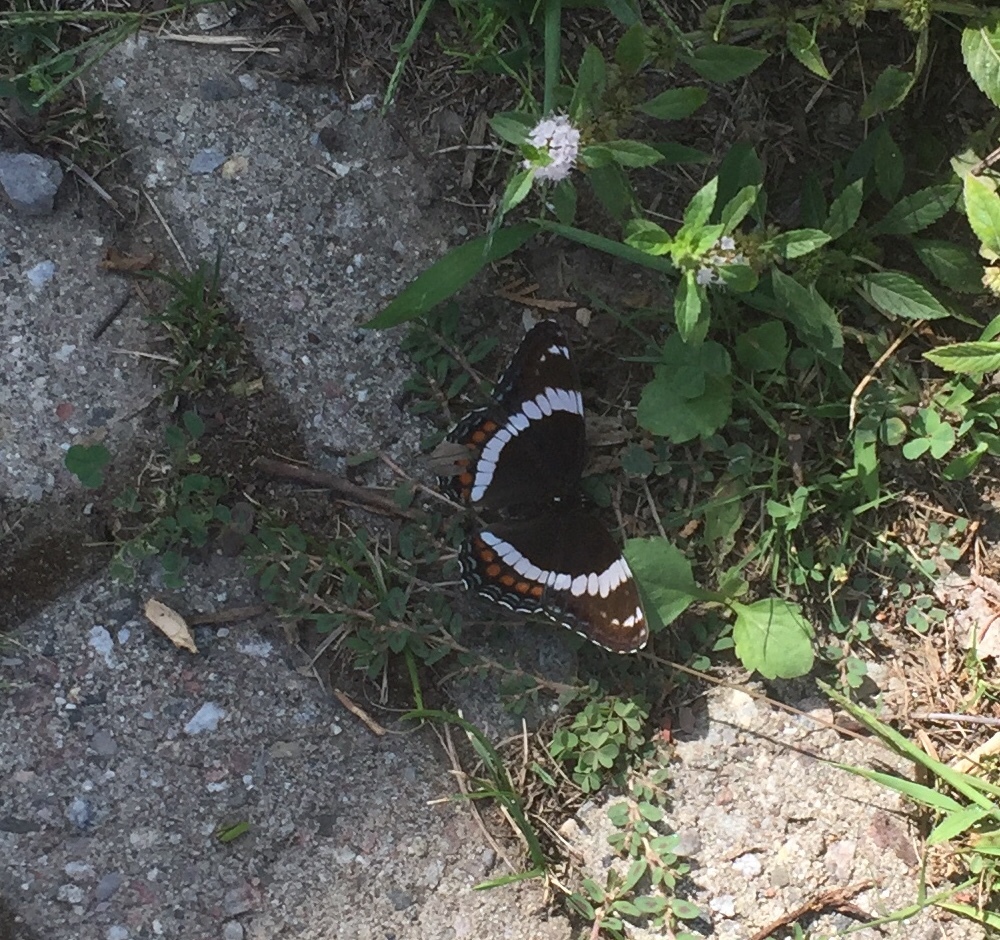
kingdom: Animalia
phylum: Arthropoda
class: Insecta
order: Lepidoptera
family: Nymphalidae
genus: Limenitis
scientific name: Limenitis arthemis
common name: Red-spotted admiral
